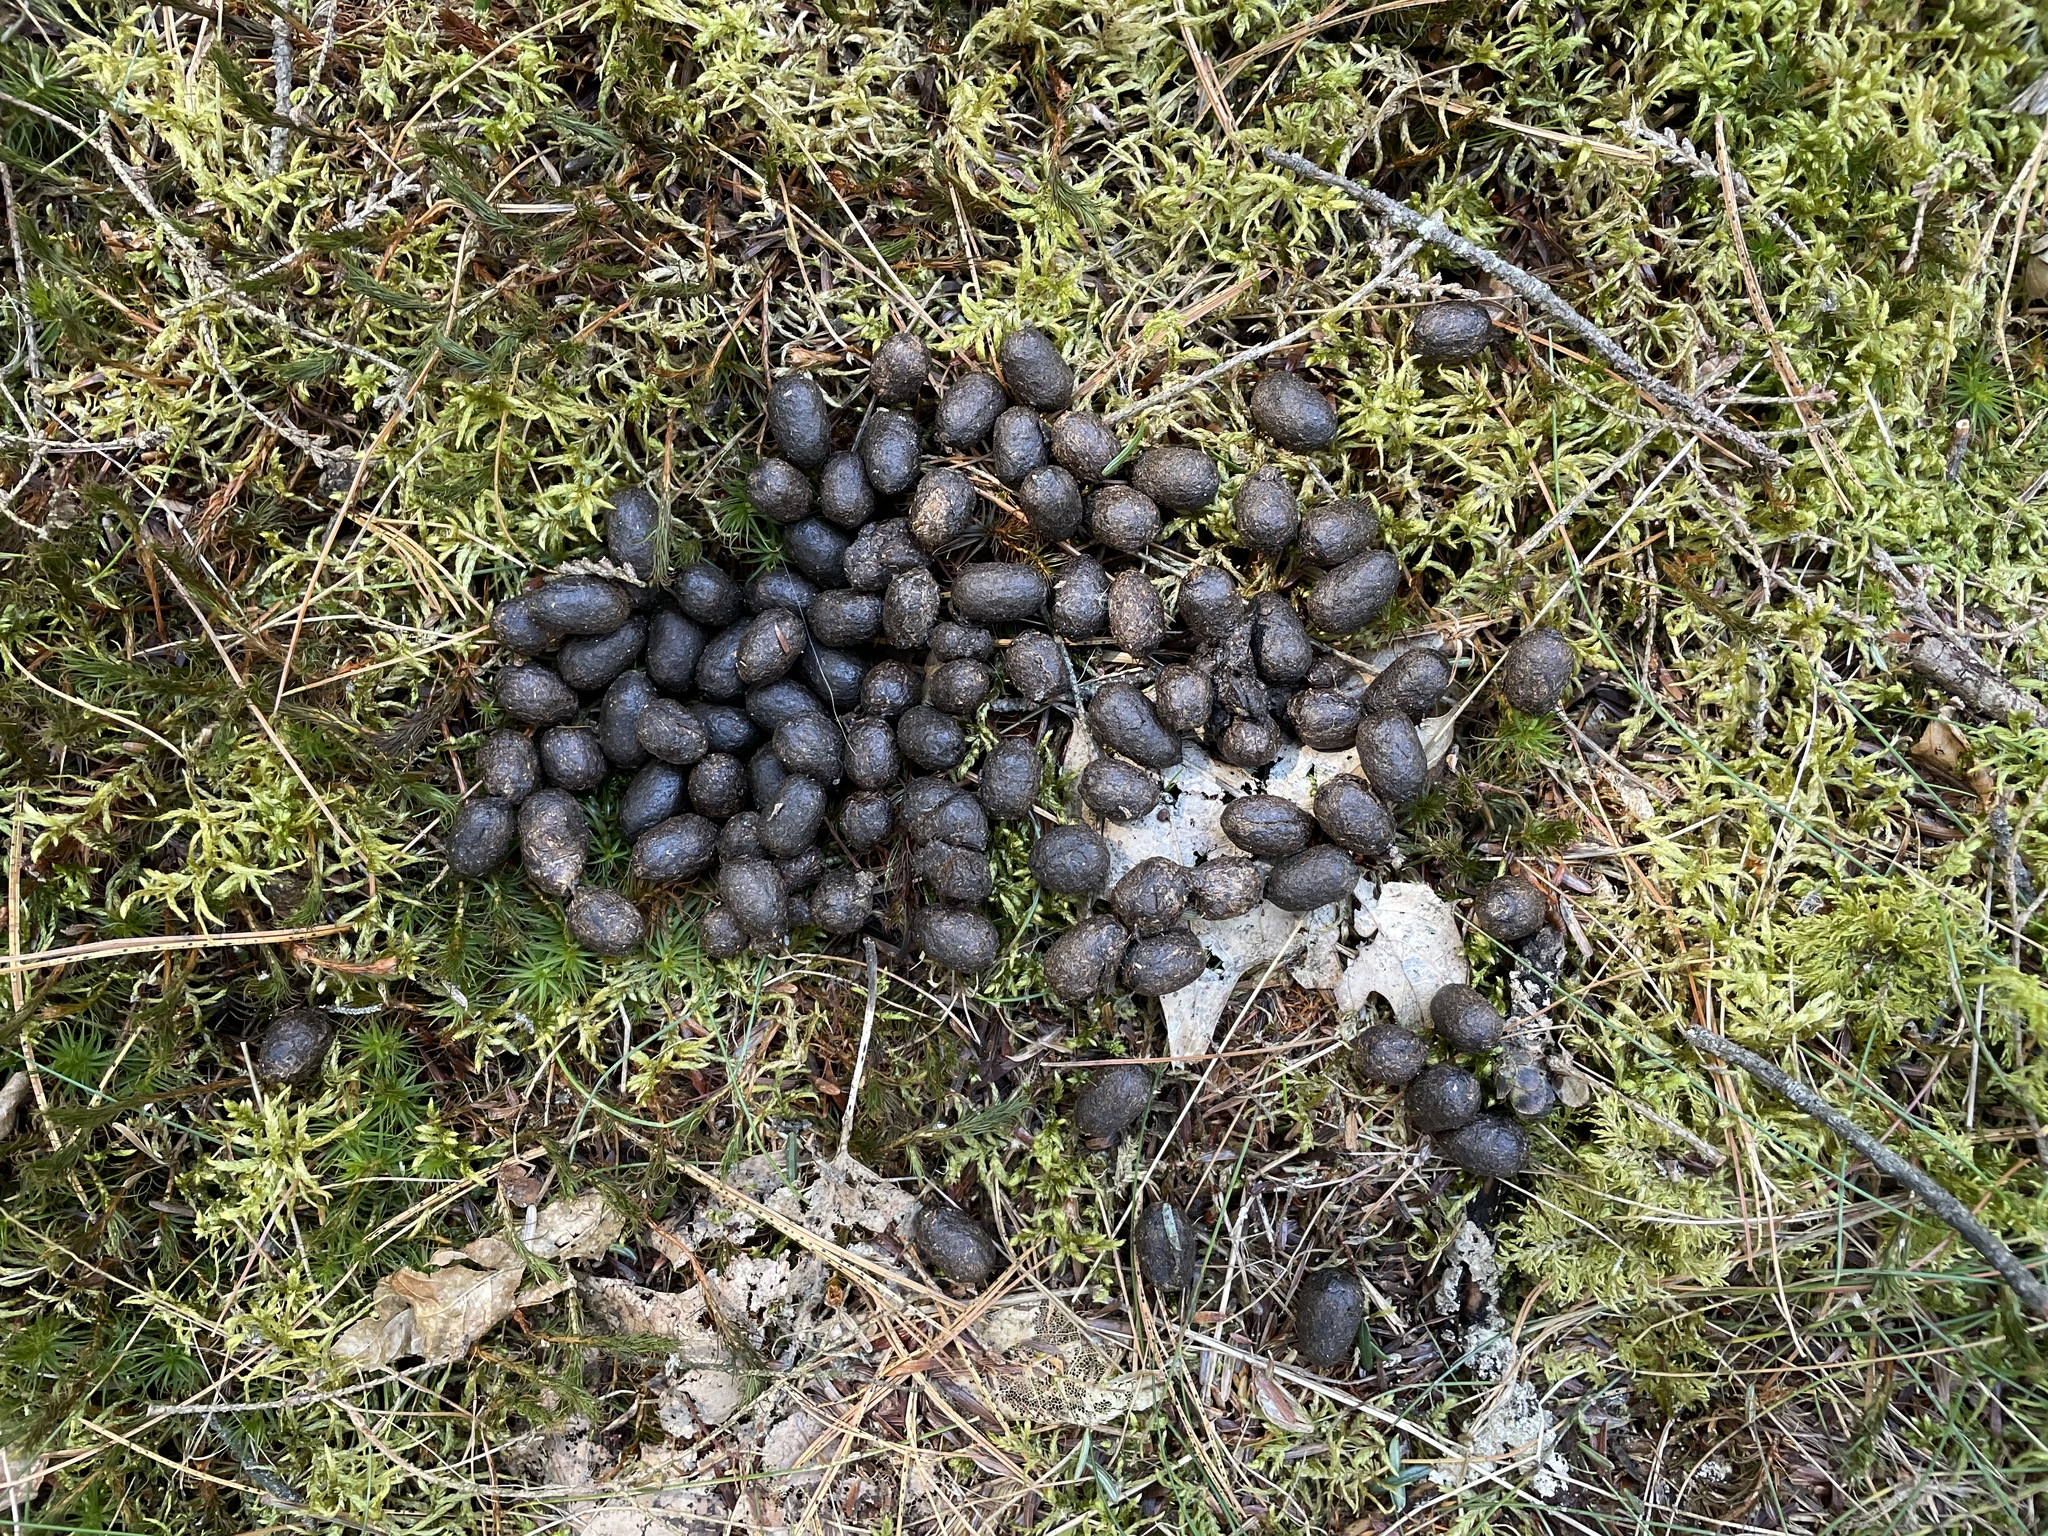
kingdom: Animalia
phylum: Chordata
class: Mammalia
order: Artiodactyla
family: Cervidae
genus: Odocoileus
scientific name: Odocoileus virginianus
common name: White-tailed deer
